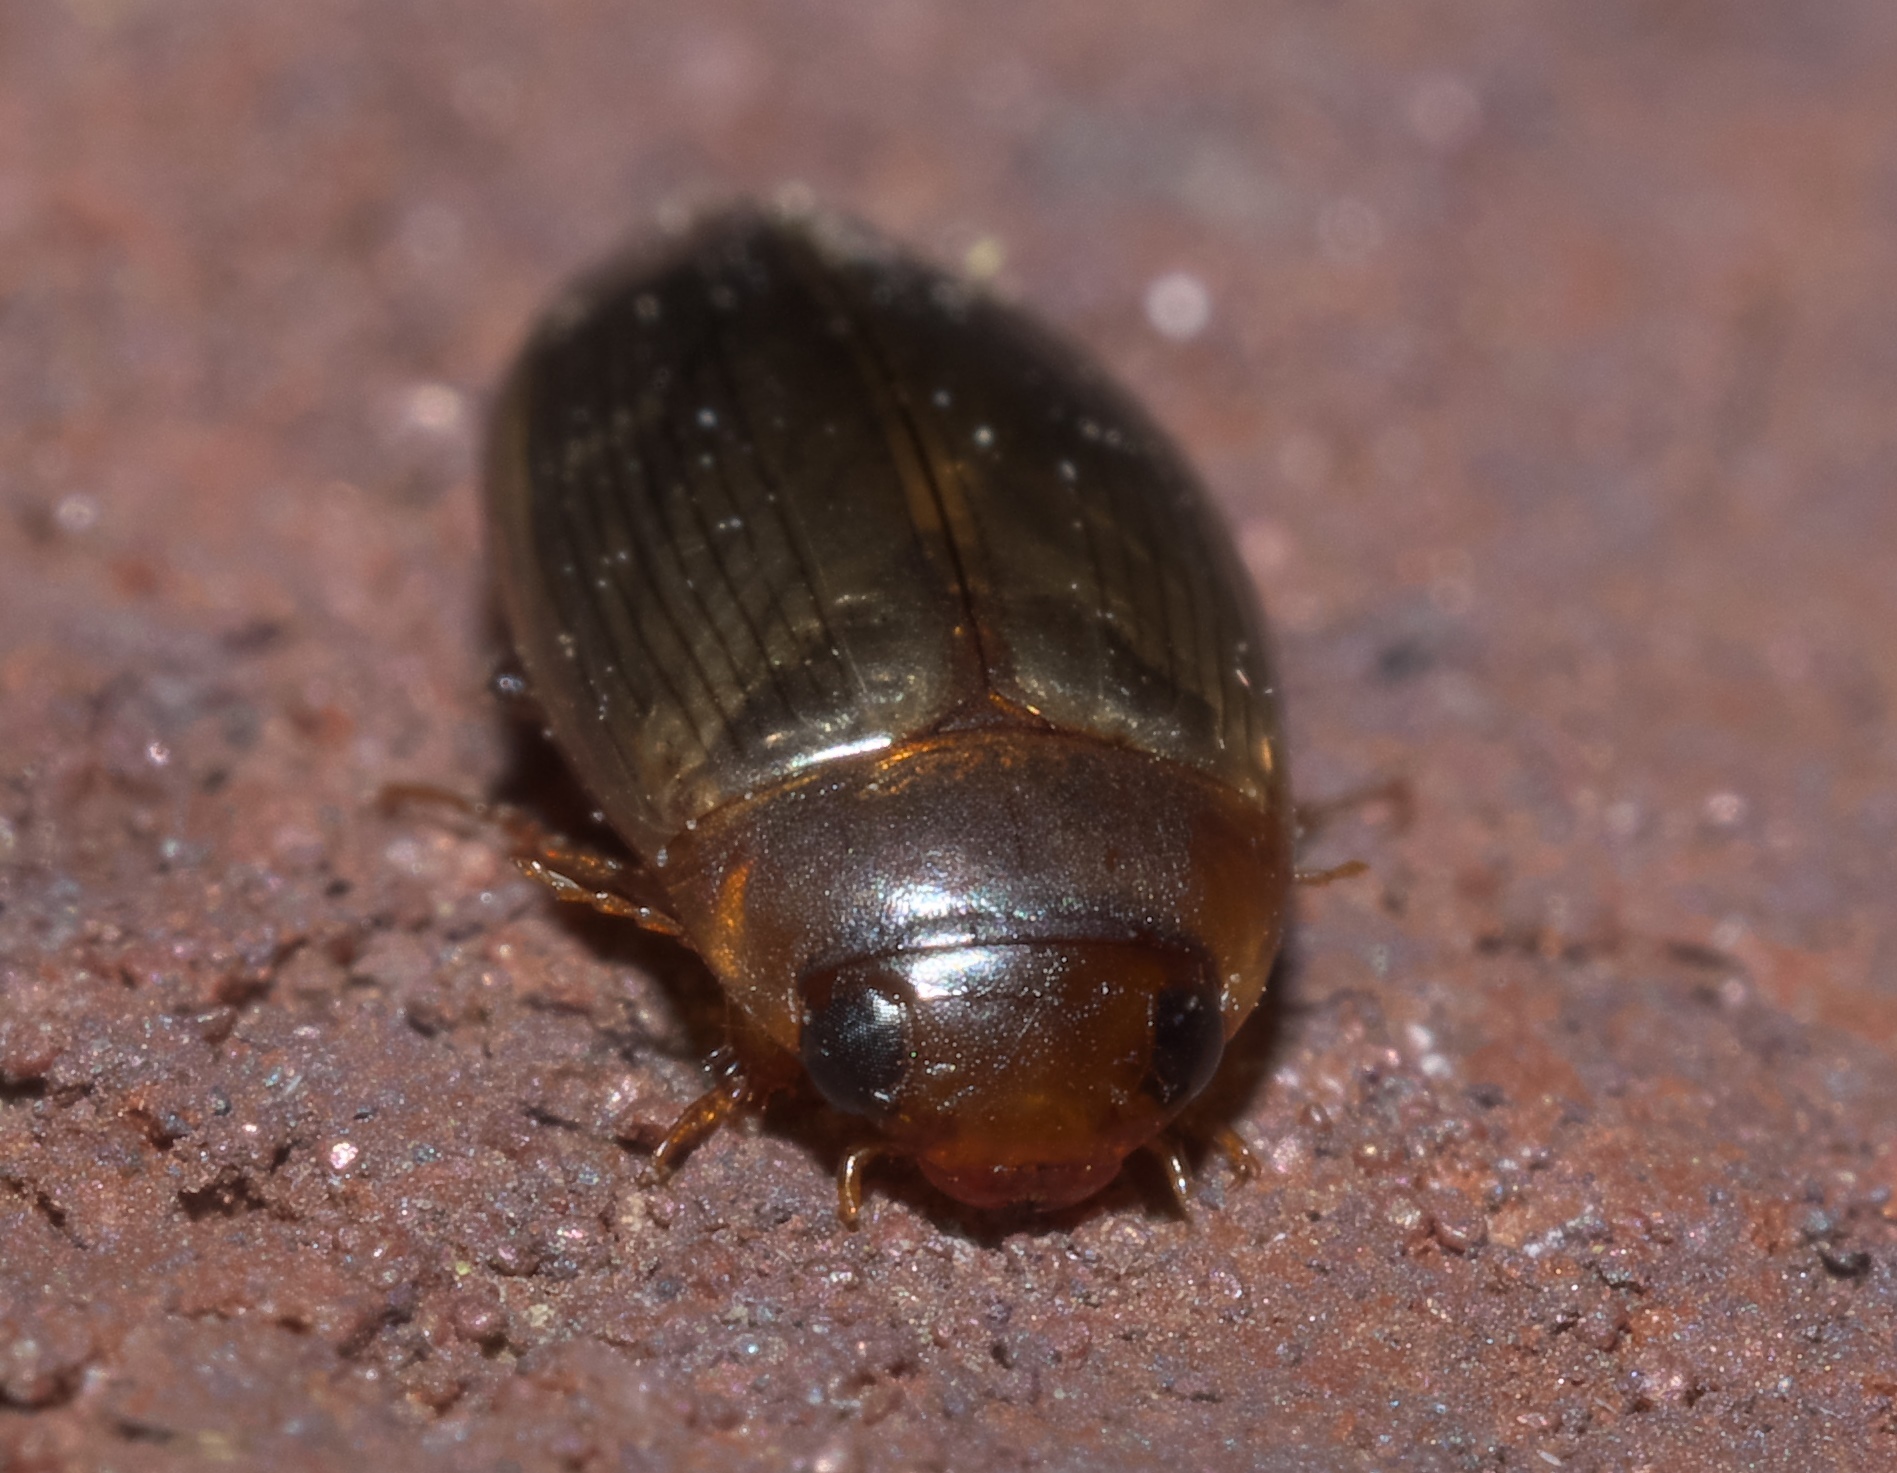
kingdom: Animalia
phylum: Arthropoda
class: Insecta
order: Coleoptera
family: Dytiscidae
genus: Copelatus
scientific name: Copelatus chevrolati
